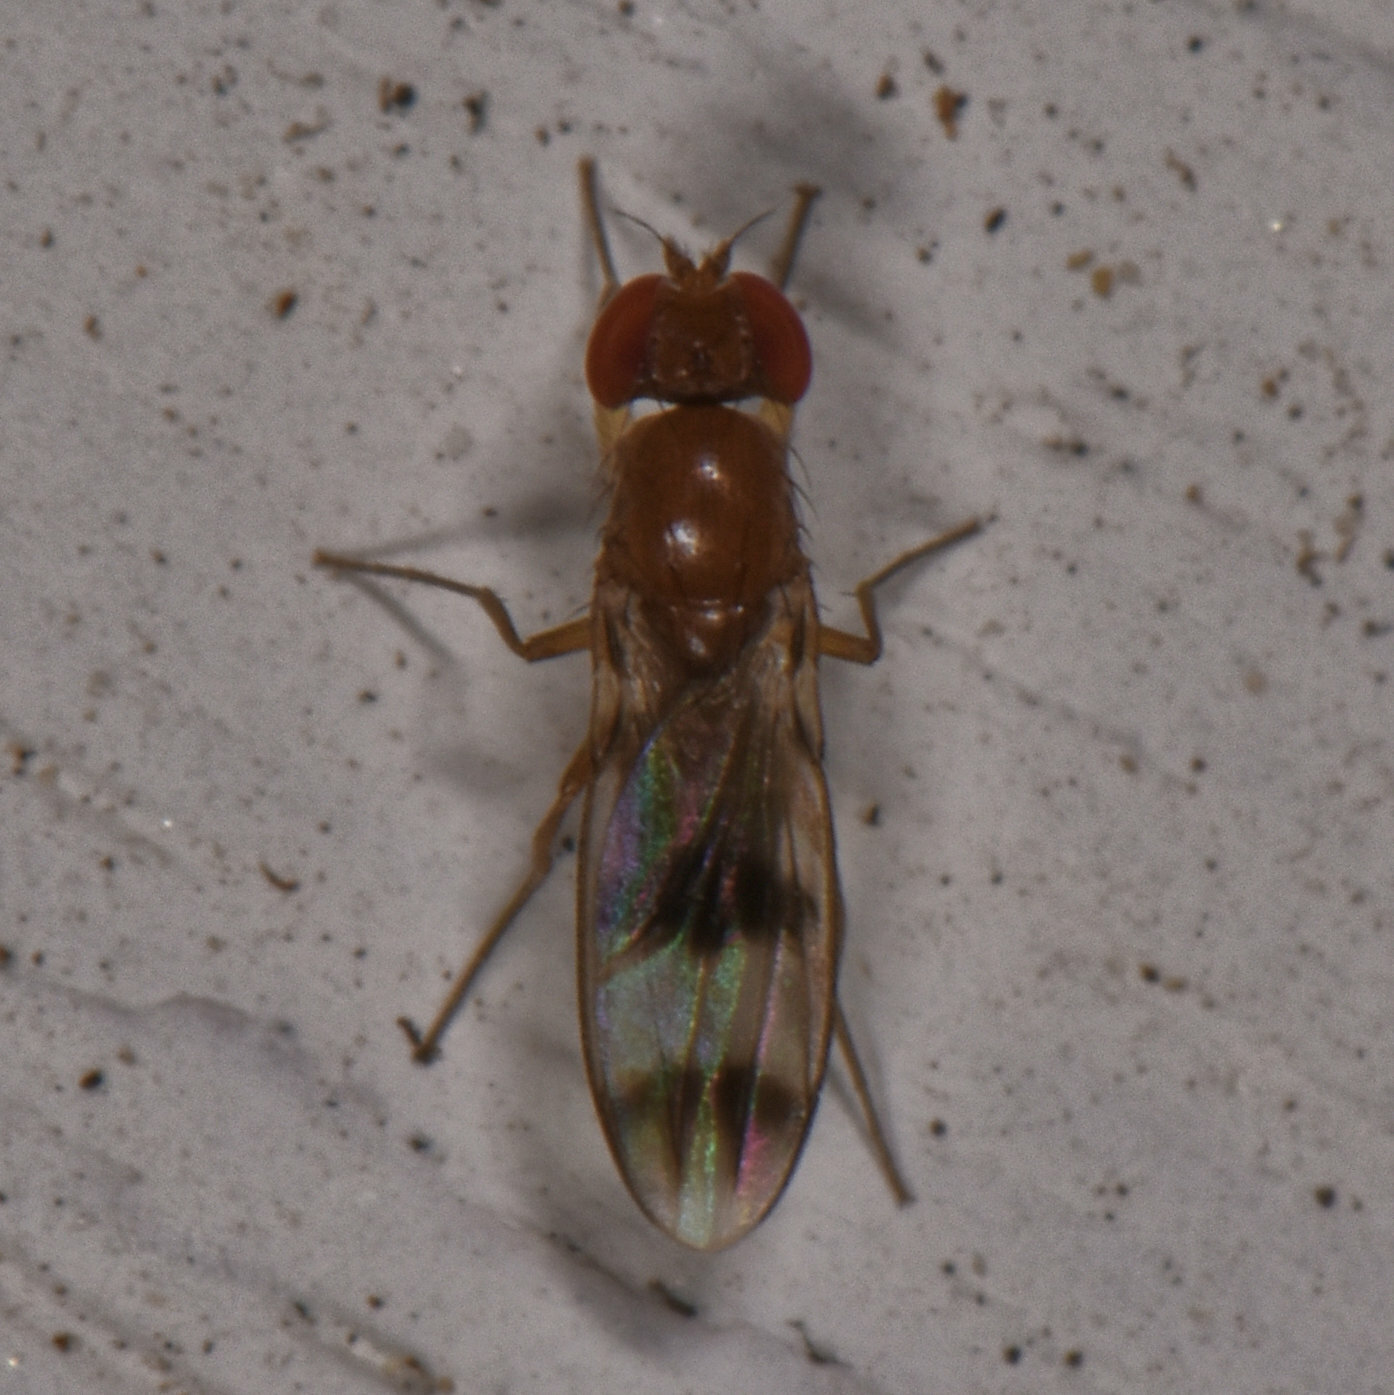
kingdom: Animalia
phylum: Arthropoda
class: Insecta
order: Diptera
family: Drosophilidae
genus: Chymomyza
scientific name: Chymomyza amoena
